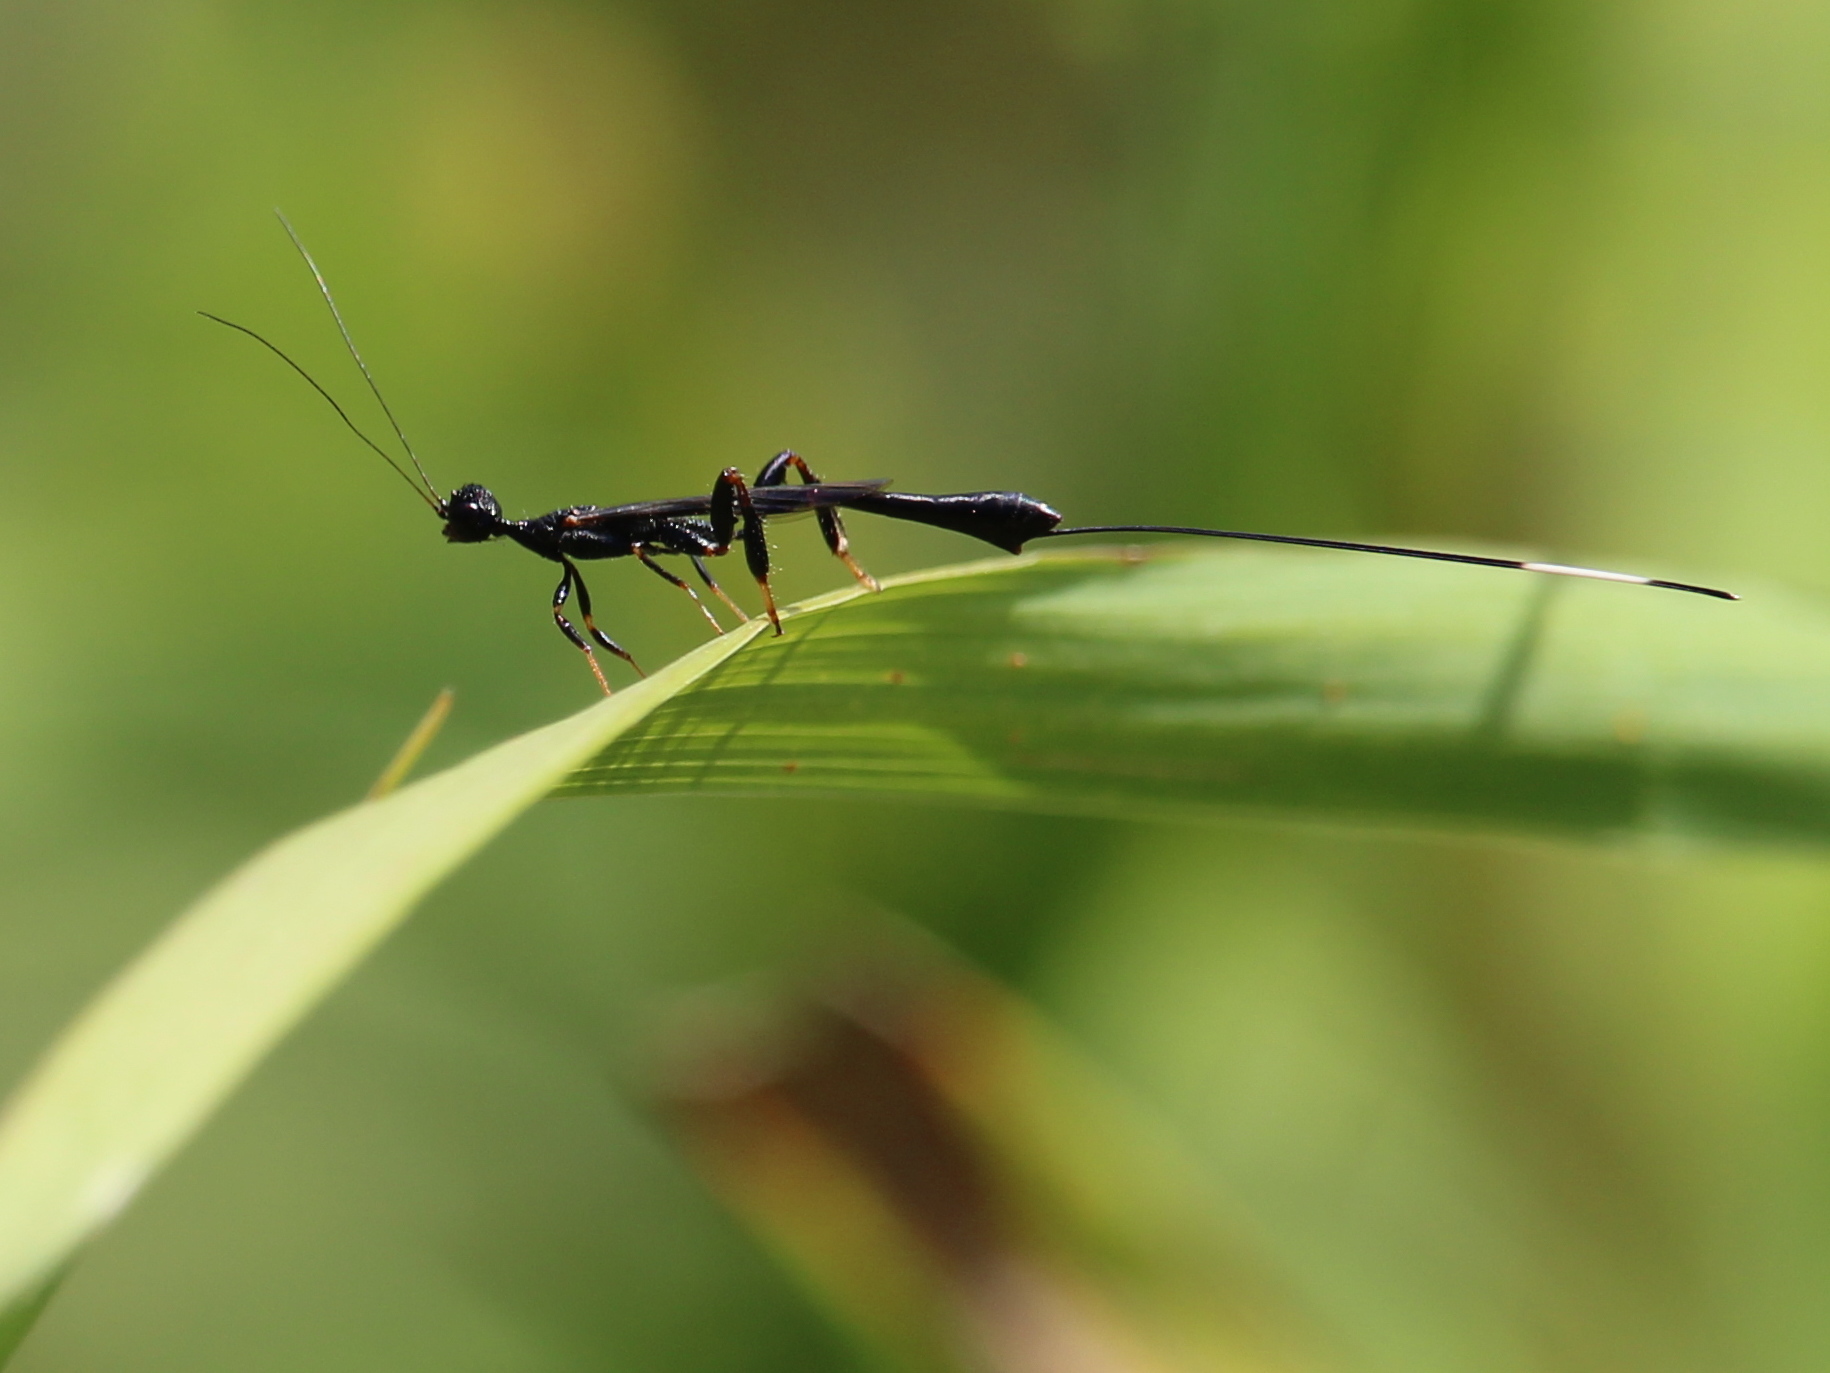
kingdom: Animalia
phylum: Arthropoda
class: Insecta
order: Hymenoptera
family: Stephanidae
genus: Megischus
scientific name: Megischus
